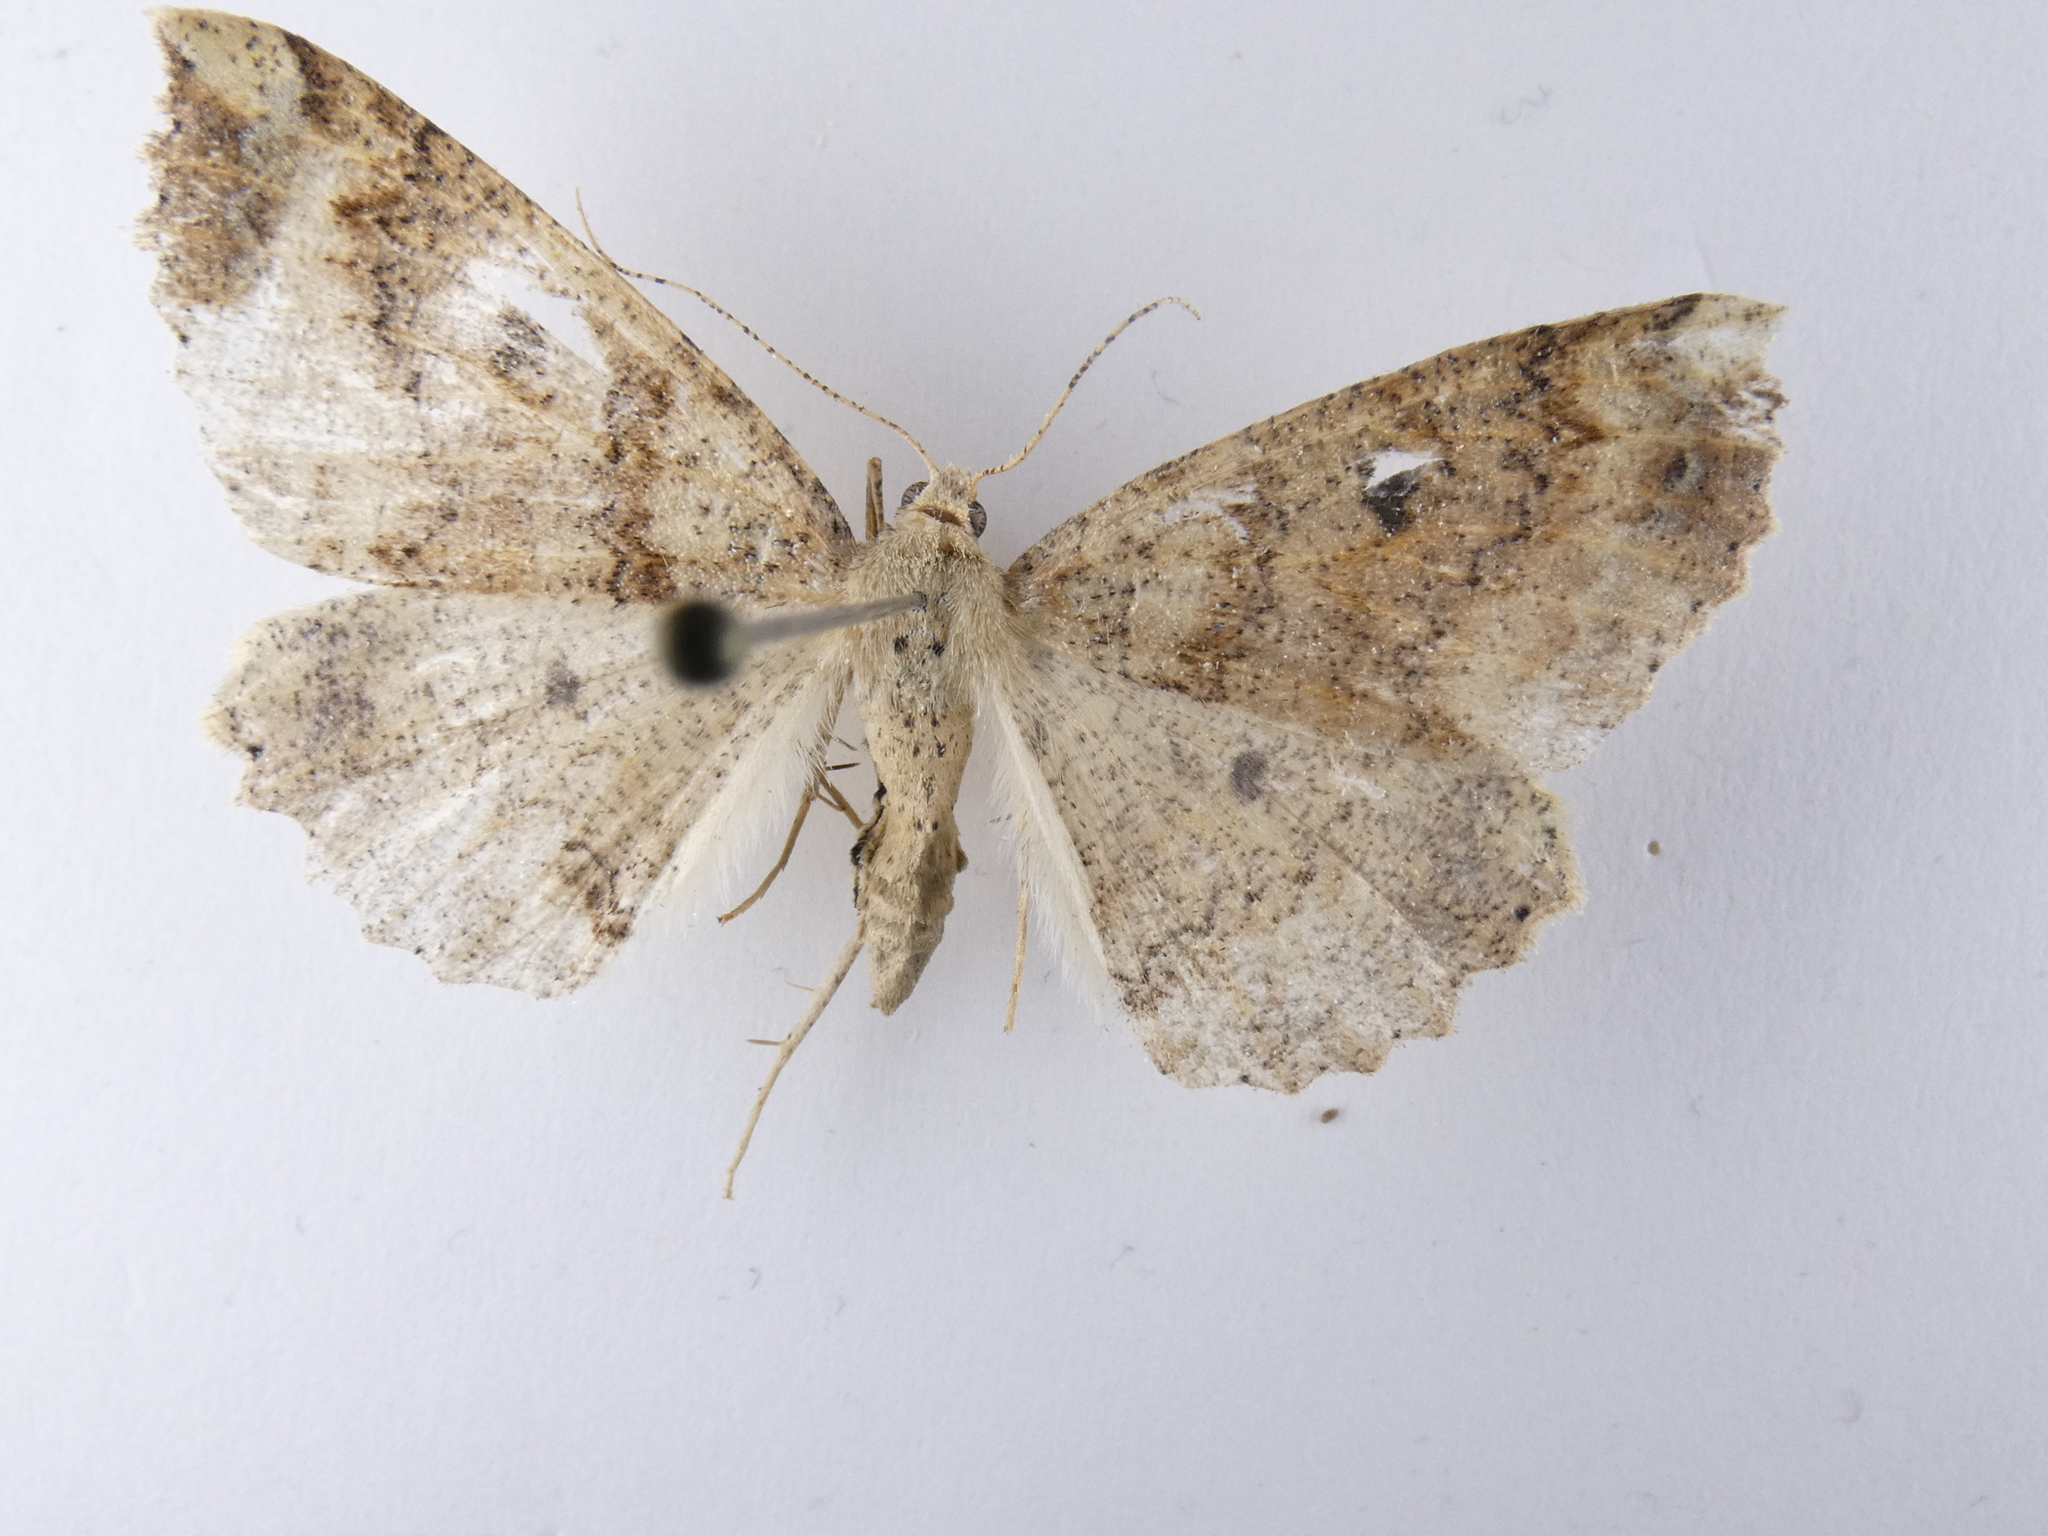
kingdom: Animalia
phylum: Arthropoda
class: Insecta
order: Lepidoptera
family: Geometridae
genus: Cleora
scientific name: Cleora scriptaria
